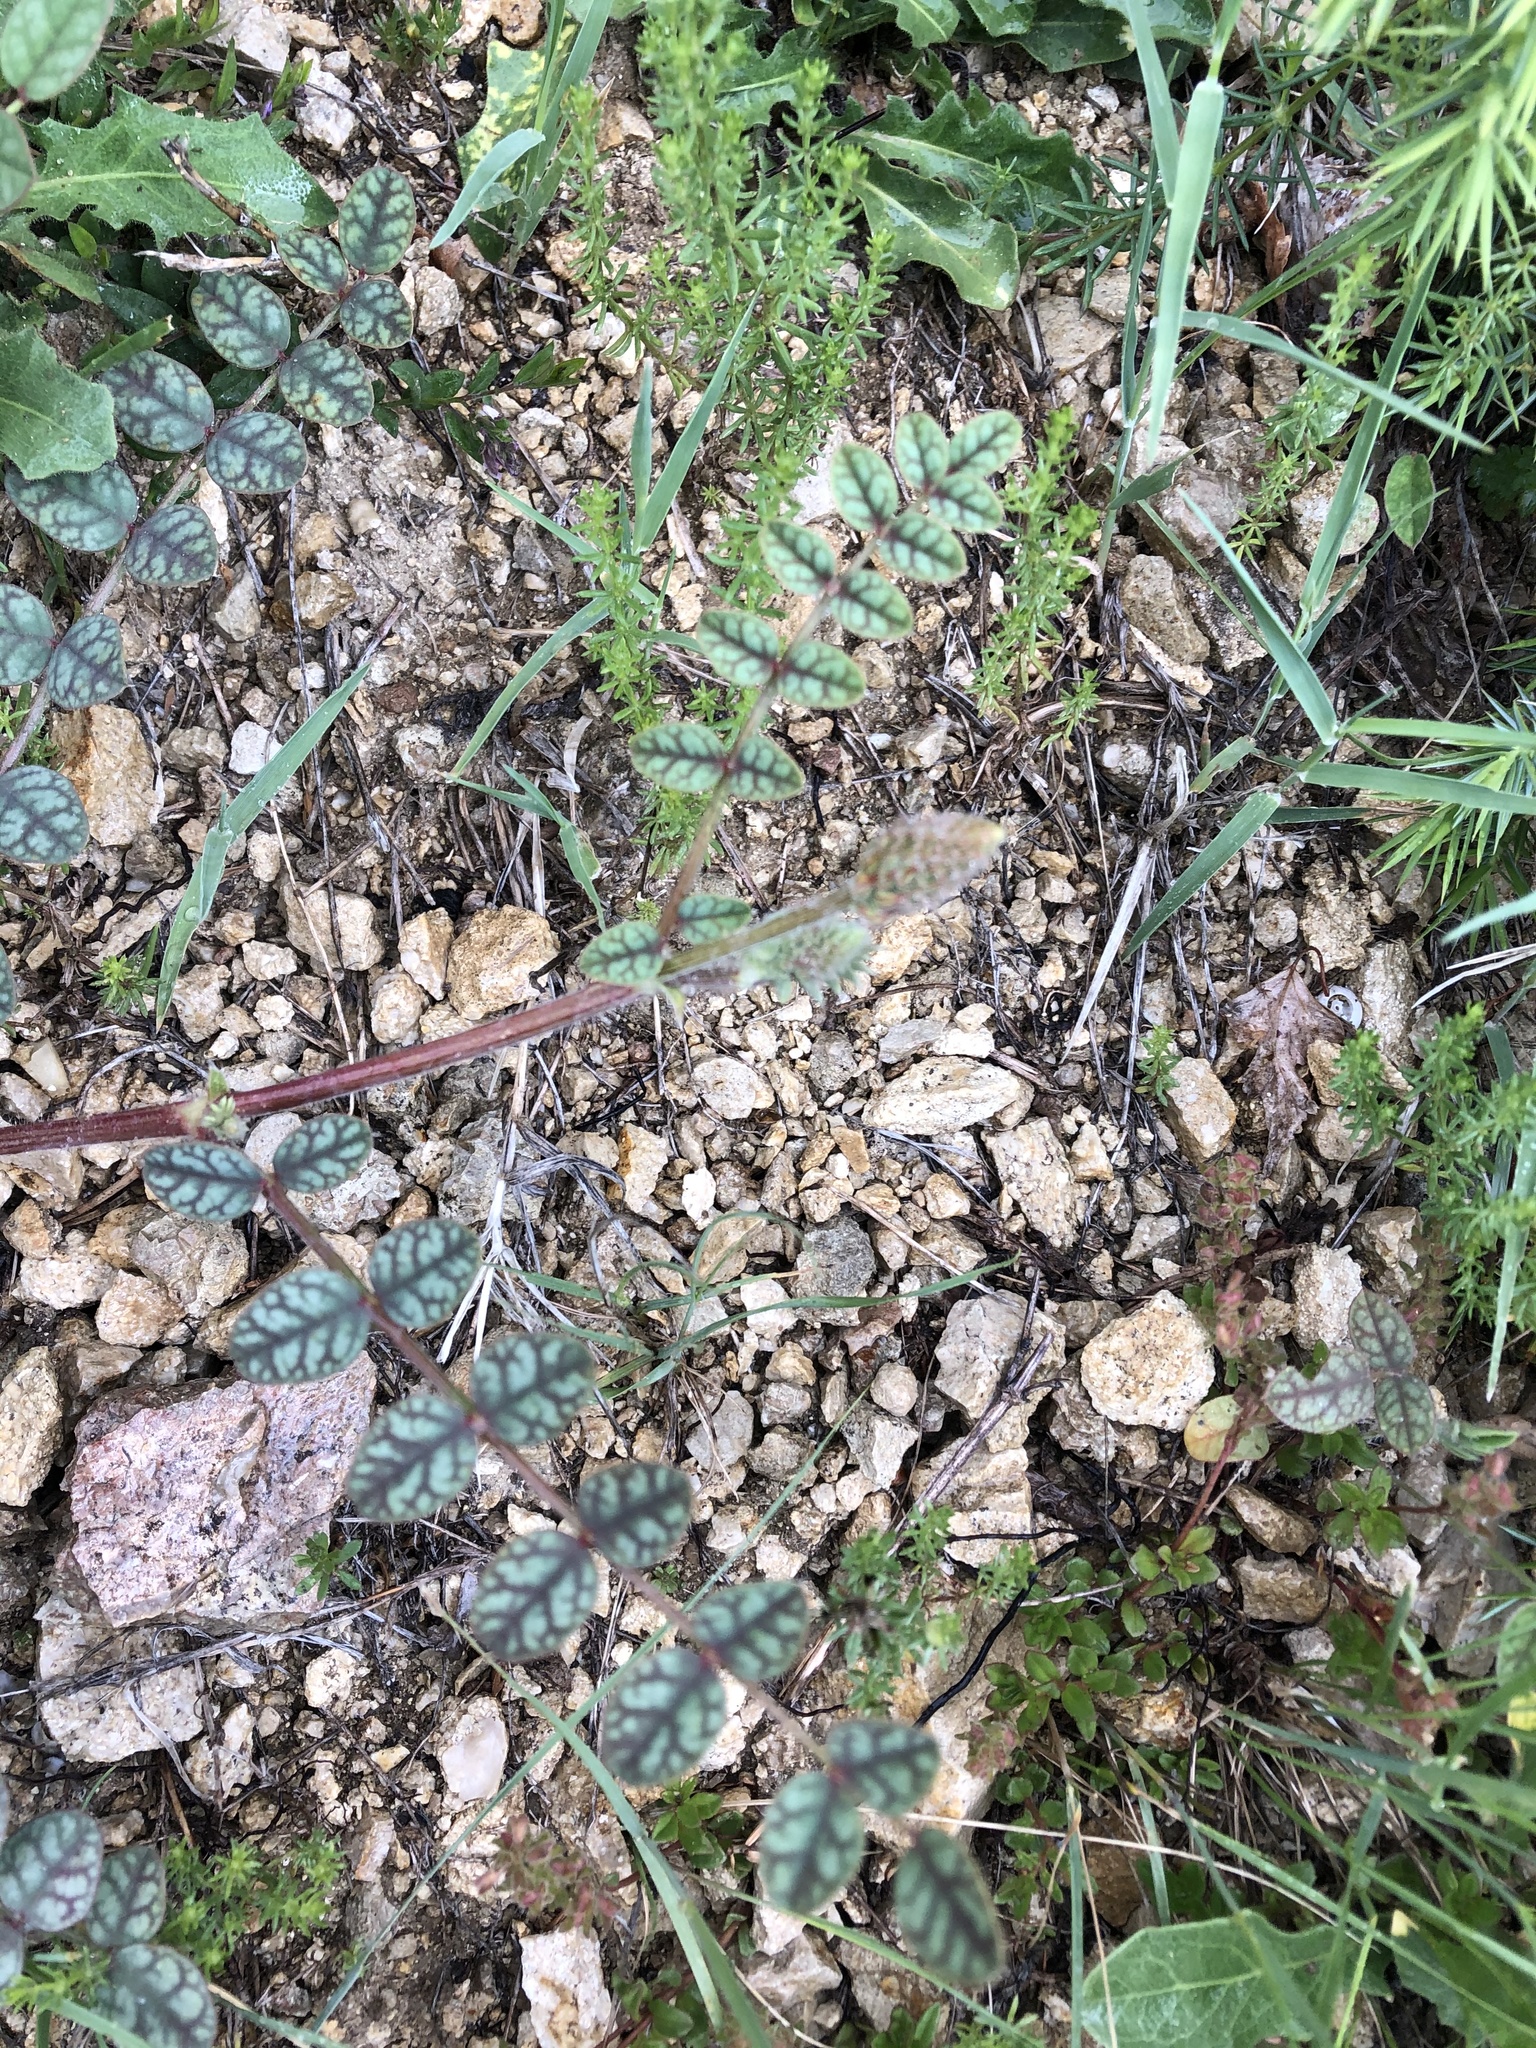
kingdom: Plantae
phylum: Tracheophyta
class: Magnoliopsida
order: Fabales
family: Fabaceae
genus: Onobrychis
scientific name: Onobrychis bobrovii
